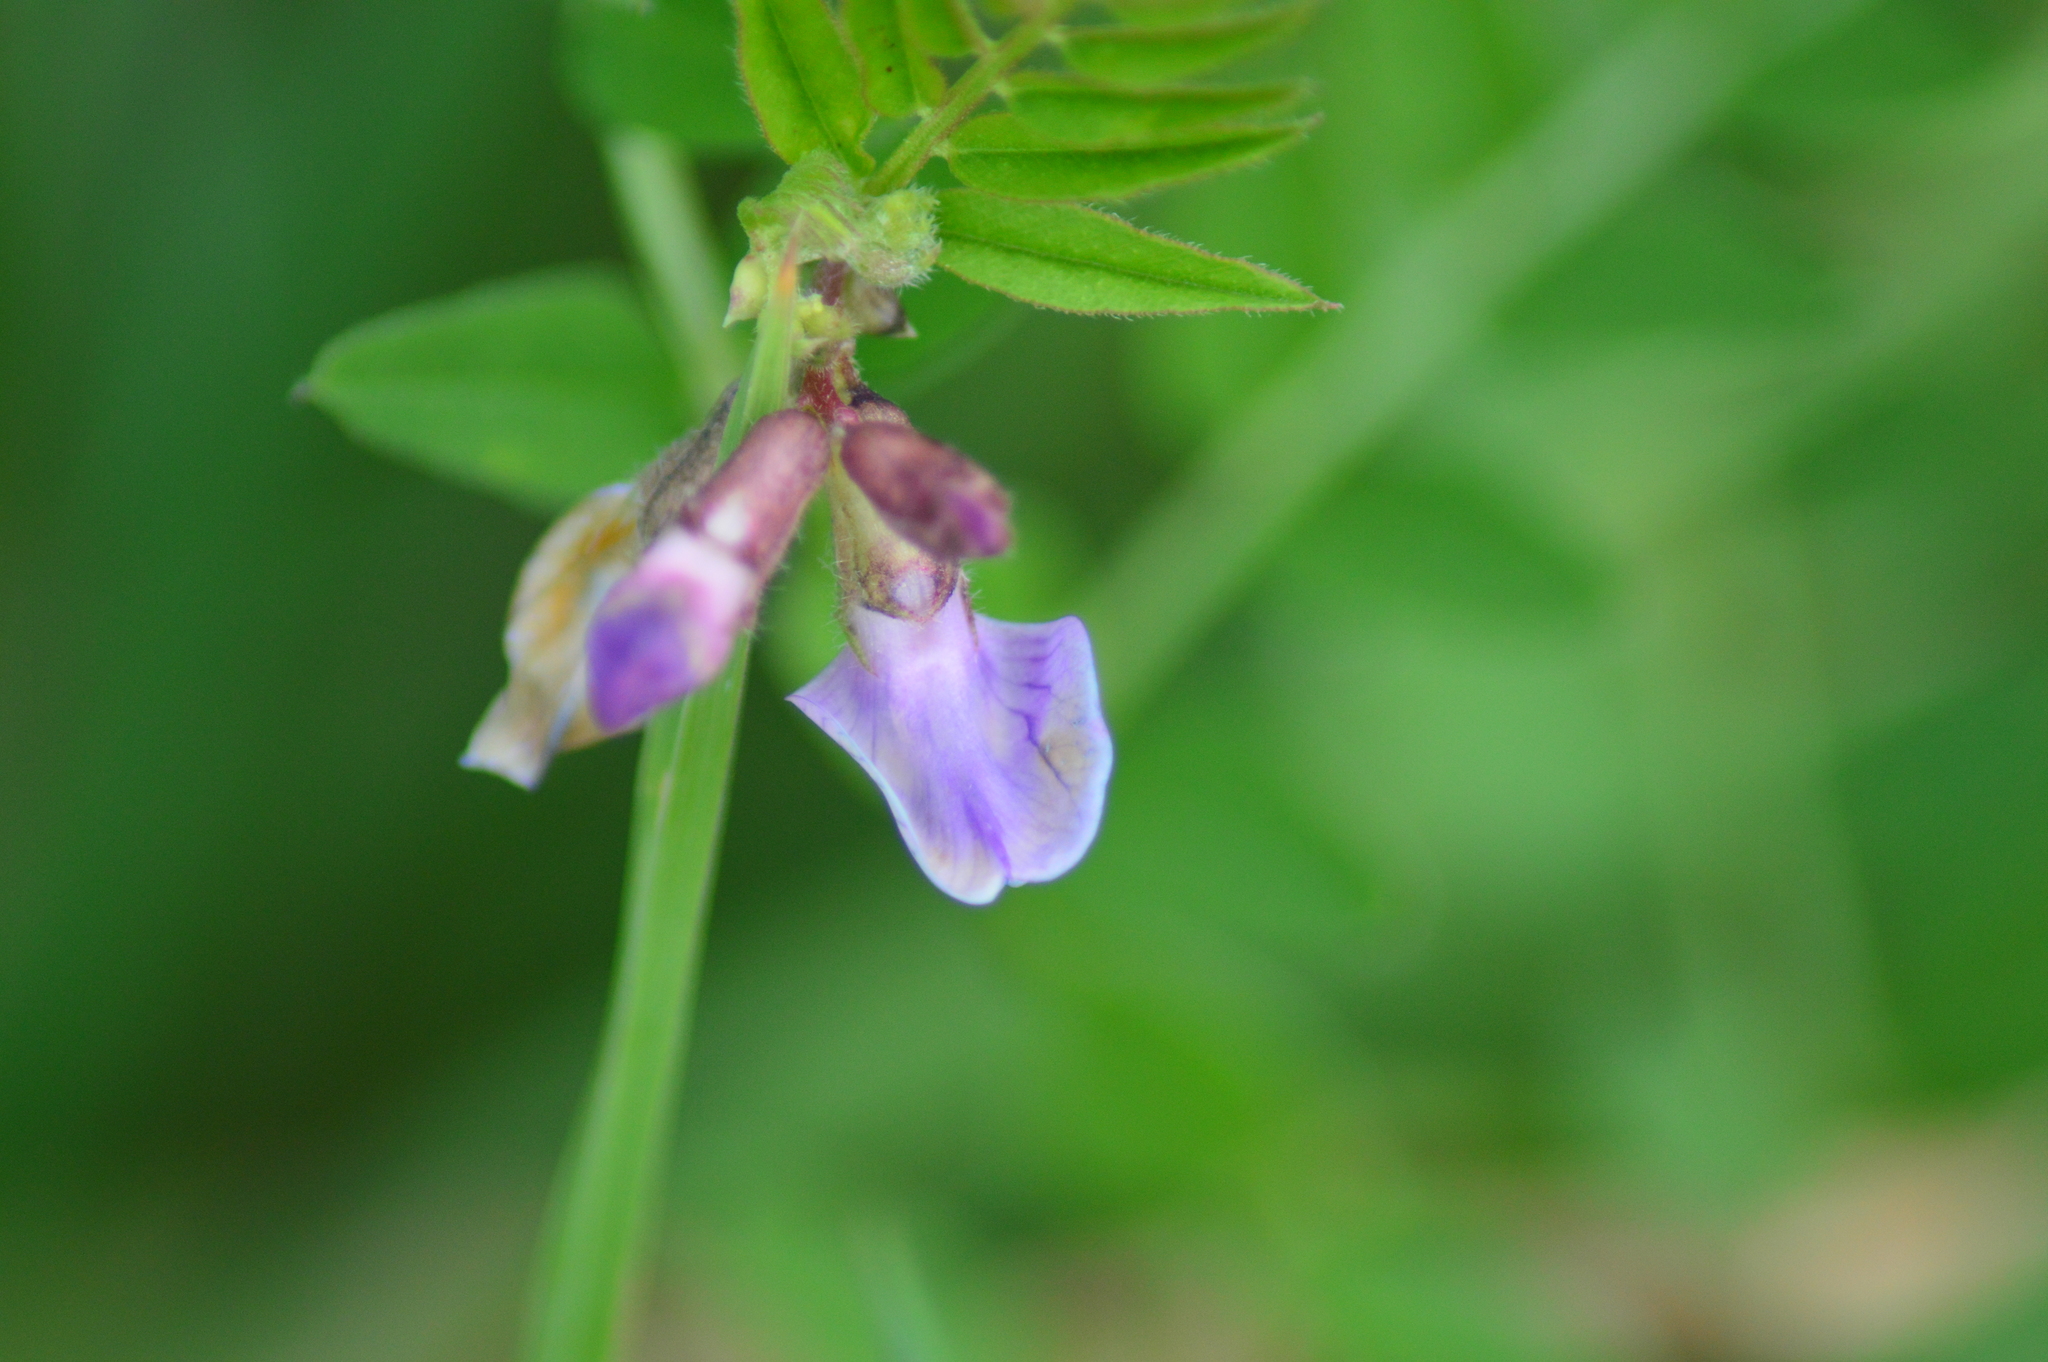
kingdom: Plantae
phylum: Tracheophyta
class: Magnoliopsida
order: Fabales
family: Fabaceae
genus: Vicia
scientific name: Vicia sepium
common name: Bush vetch
